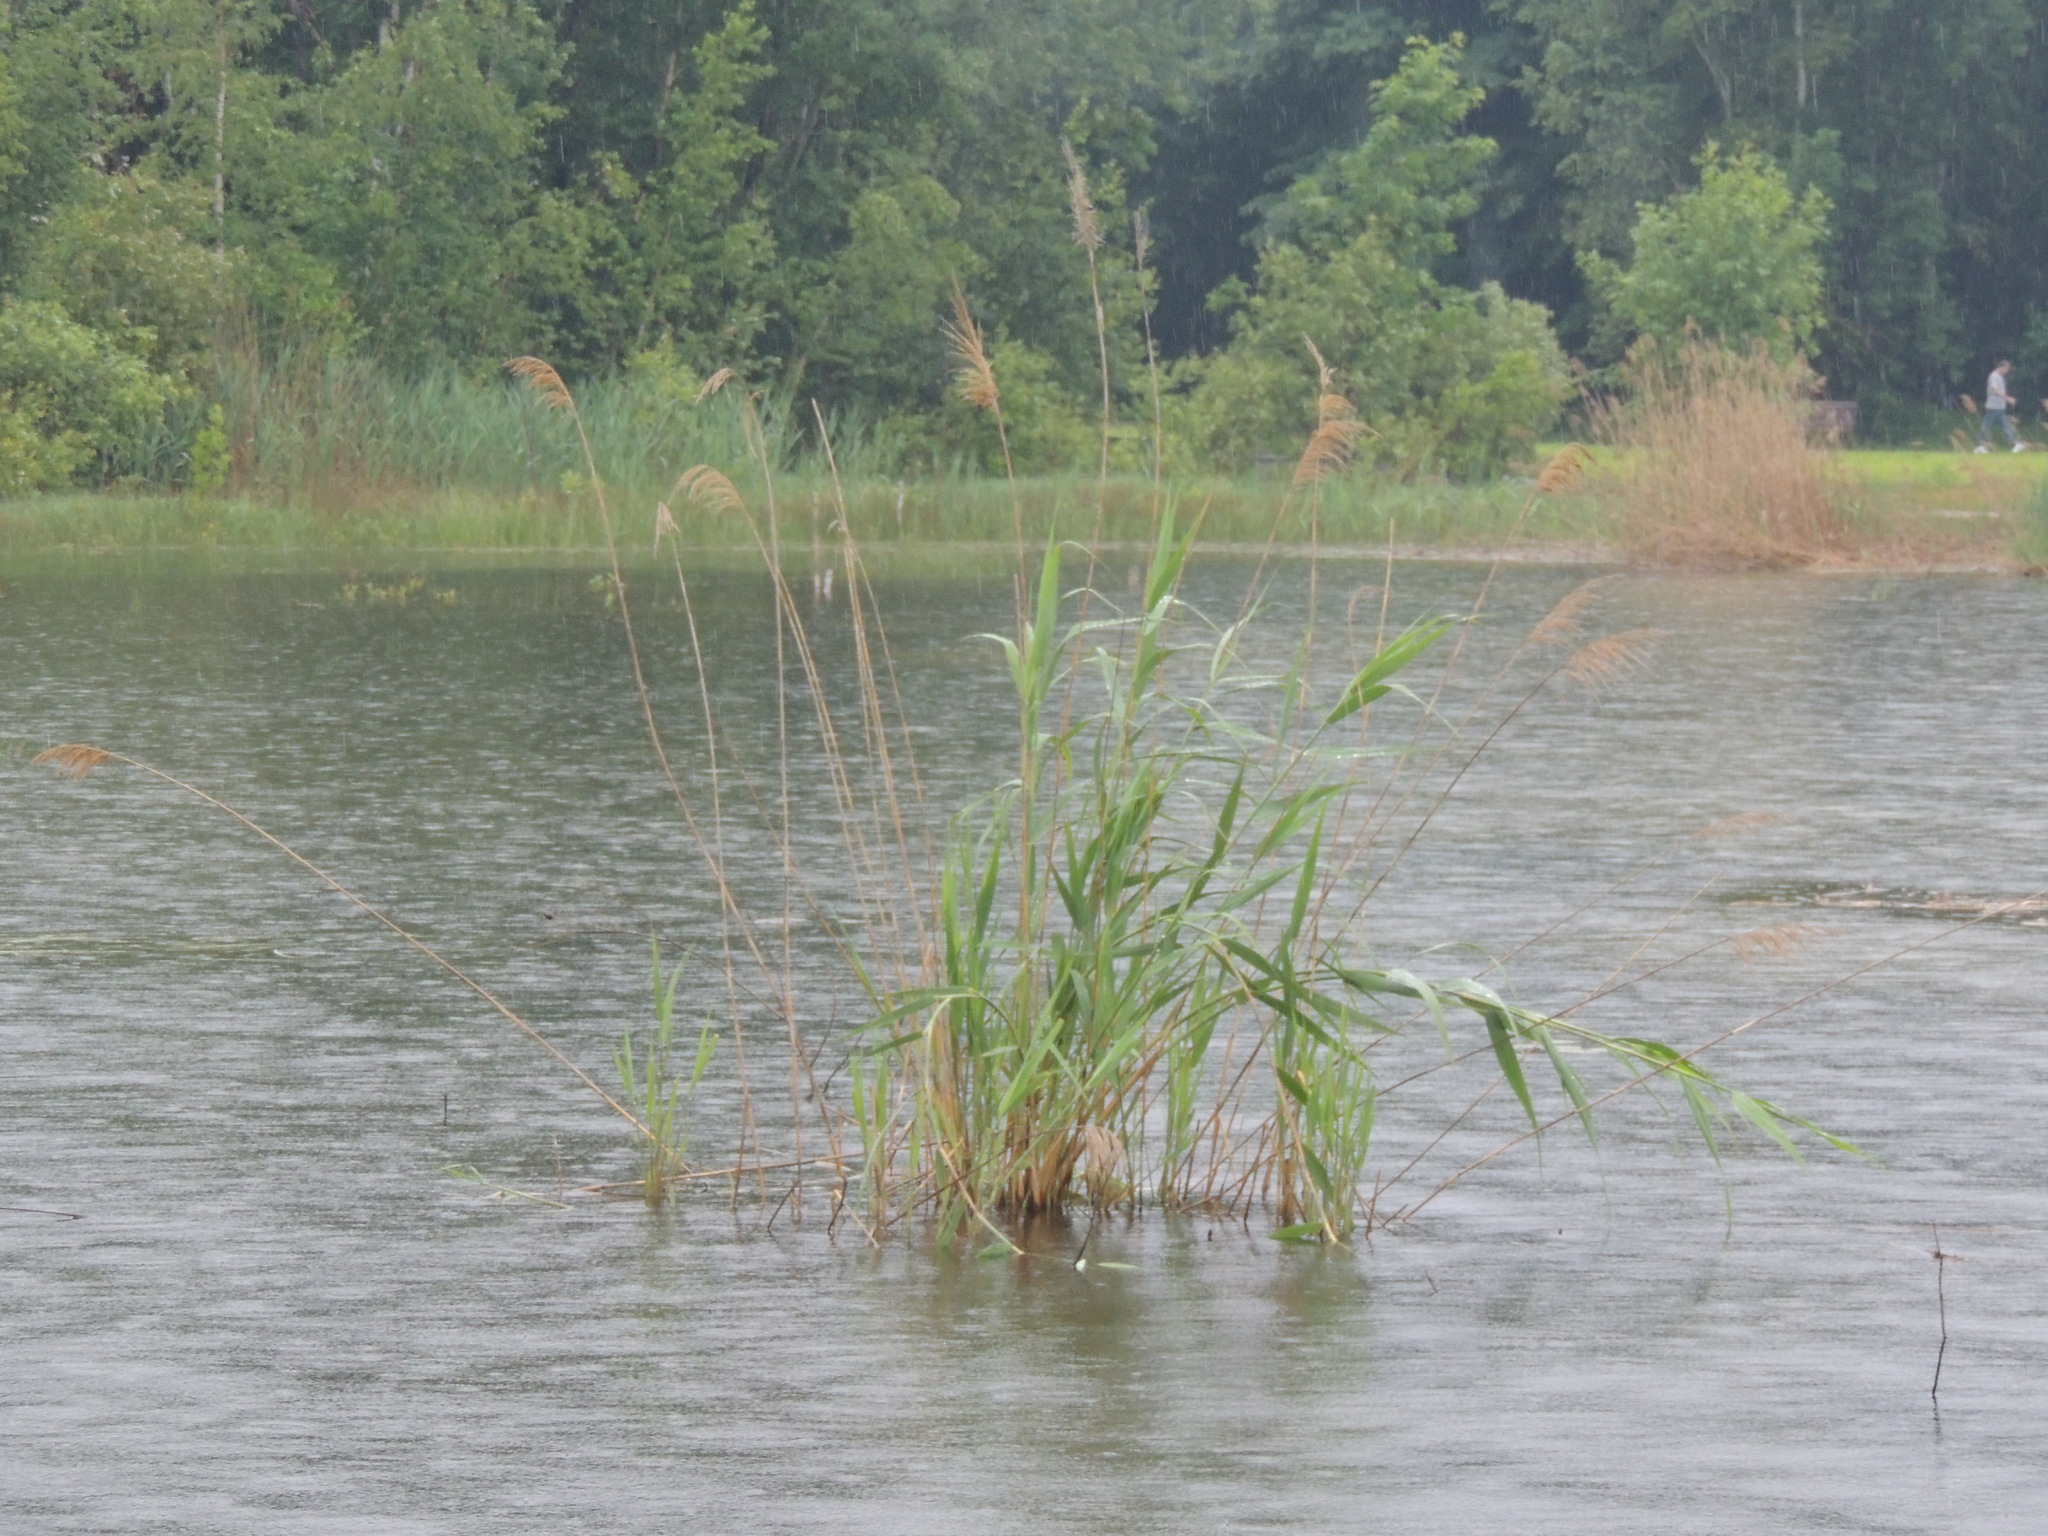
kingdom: Plantae
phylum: Tracheophyta
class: Liliopsida
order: Poales
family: Poaceae
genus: Phragmites
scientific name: Phragmites australis
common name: Common reed
